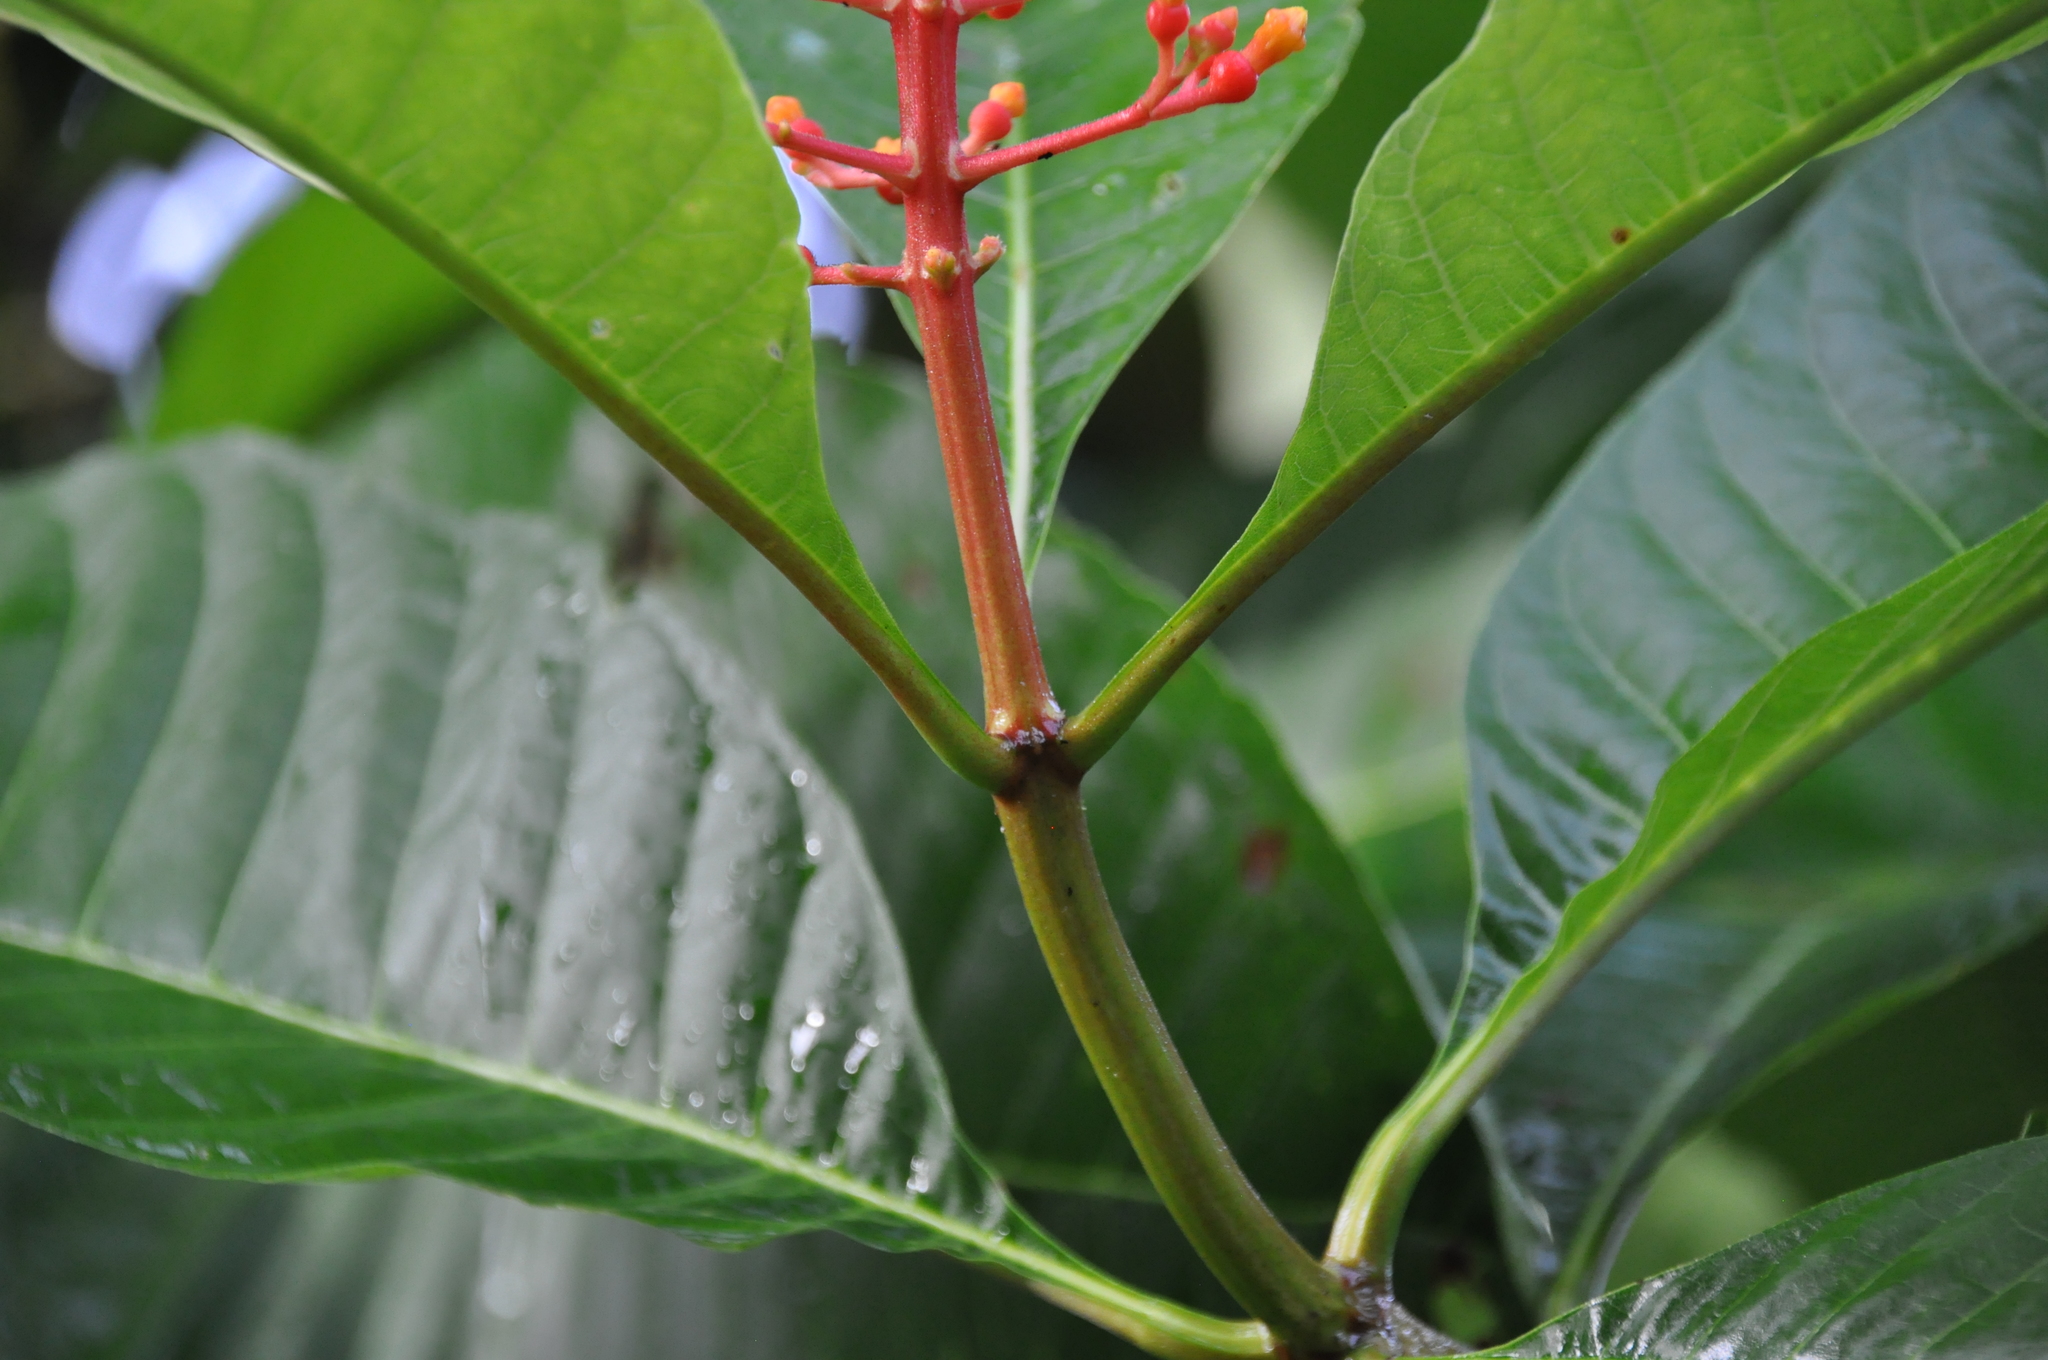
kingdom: Plantae
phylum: Tracheophyta
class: Magnoliopsida
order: Gentianales
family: Rubiaceae
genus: Isertia
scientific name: Isertia haenkeana
